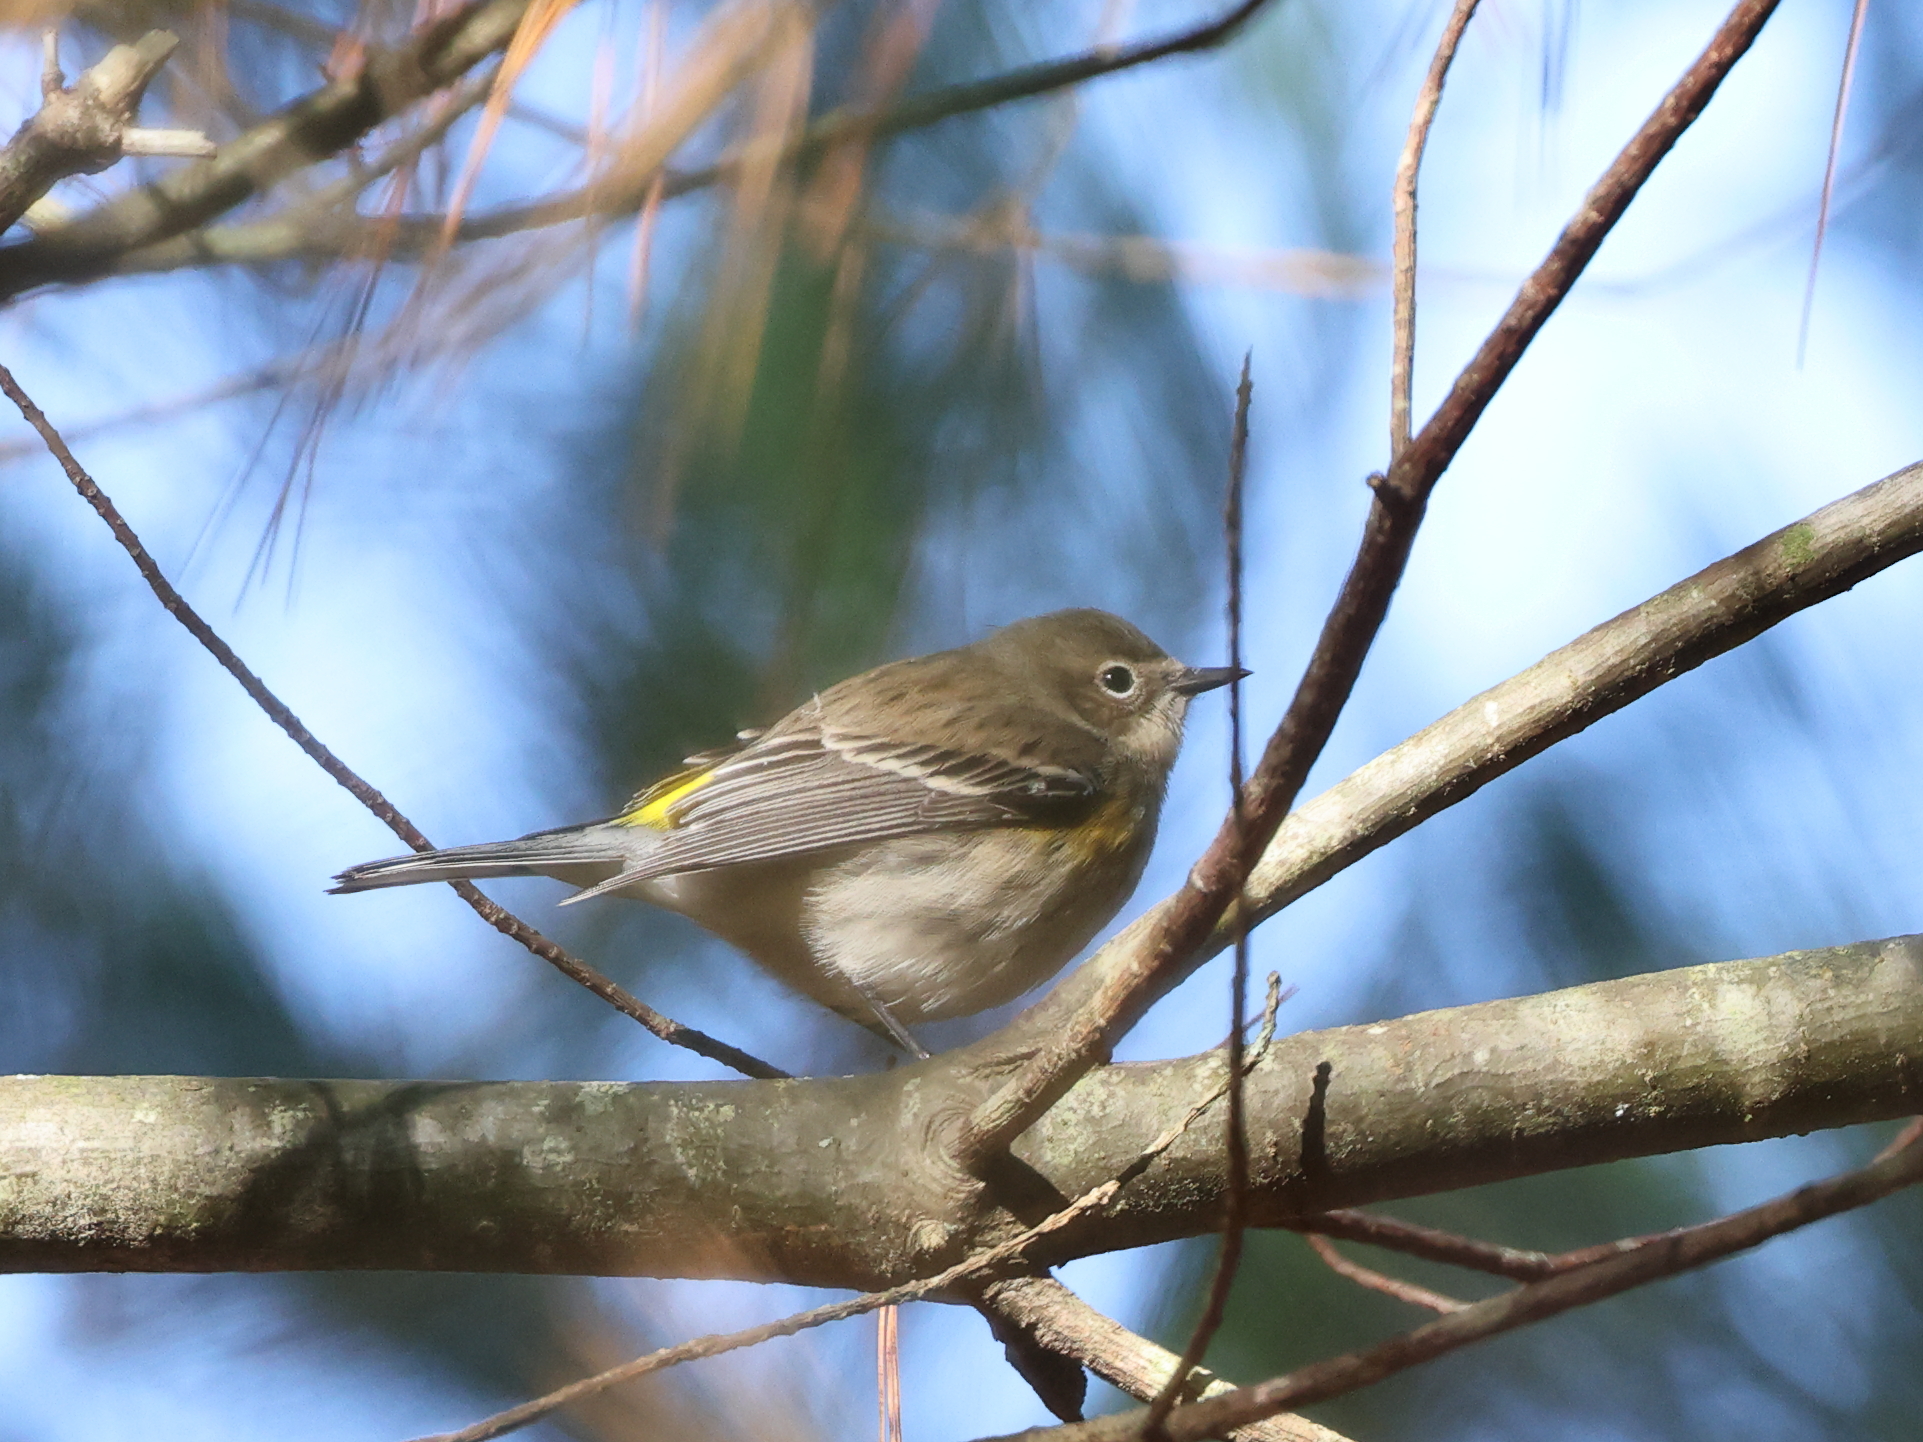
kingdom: Animalia
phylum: Chordata
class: Aves
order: Passeriformes
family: Parulidae
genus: Setophaga
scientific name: Setophaga coronata
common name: Myrtle warbler
